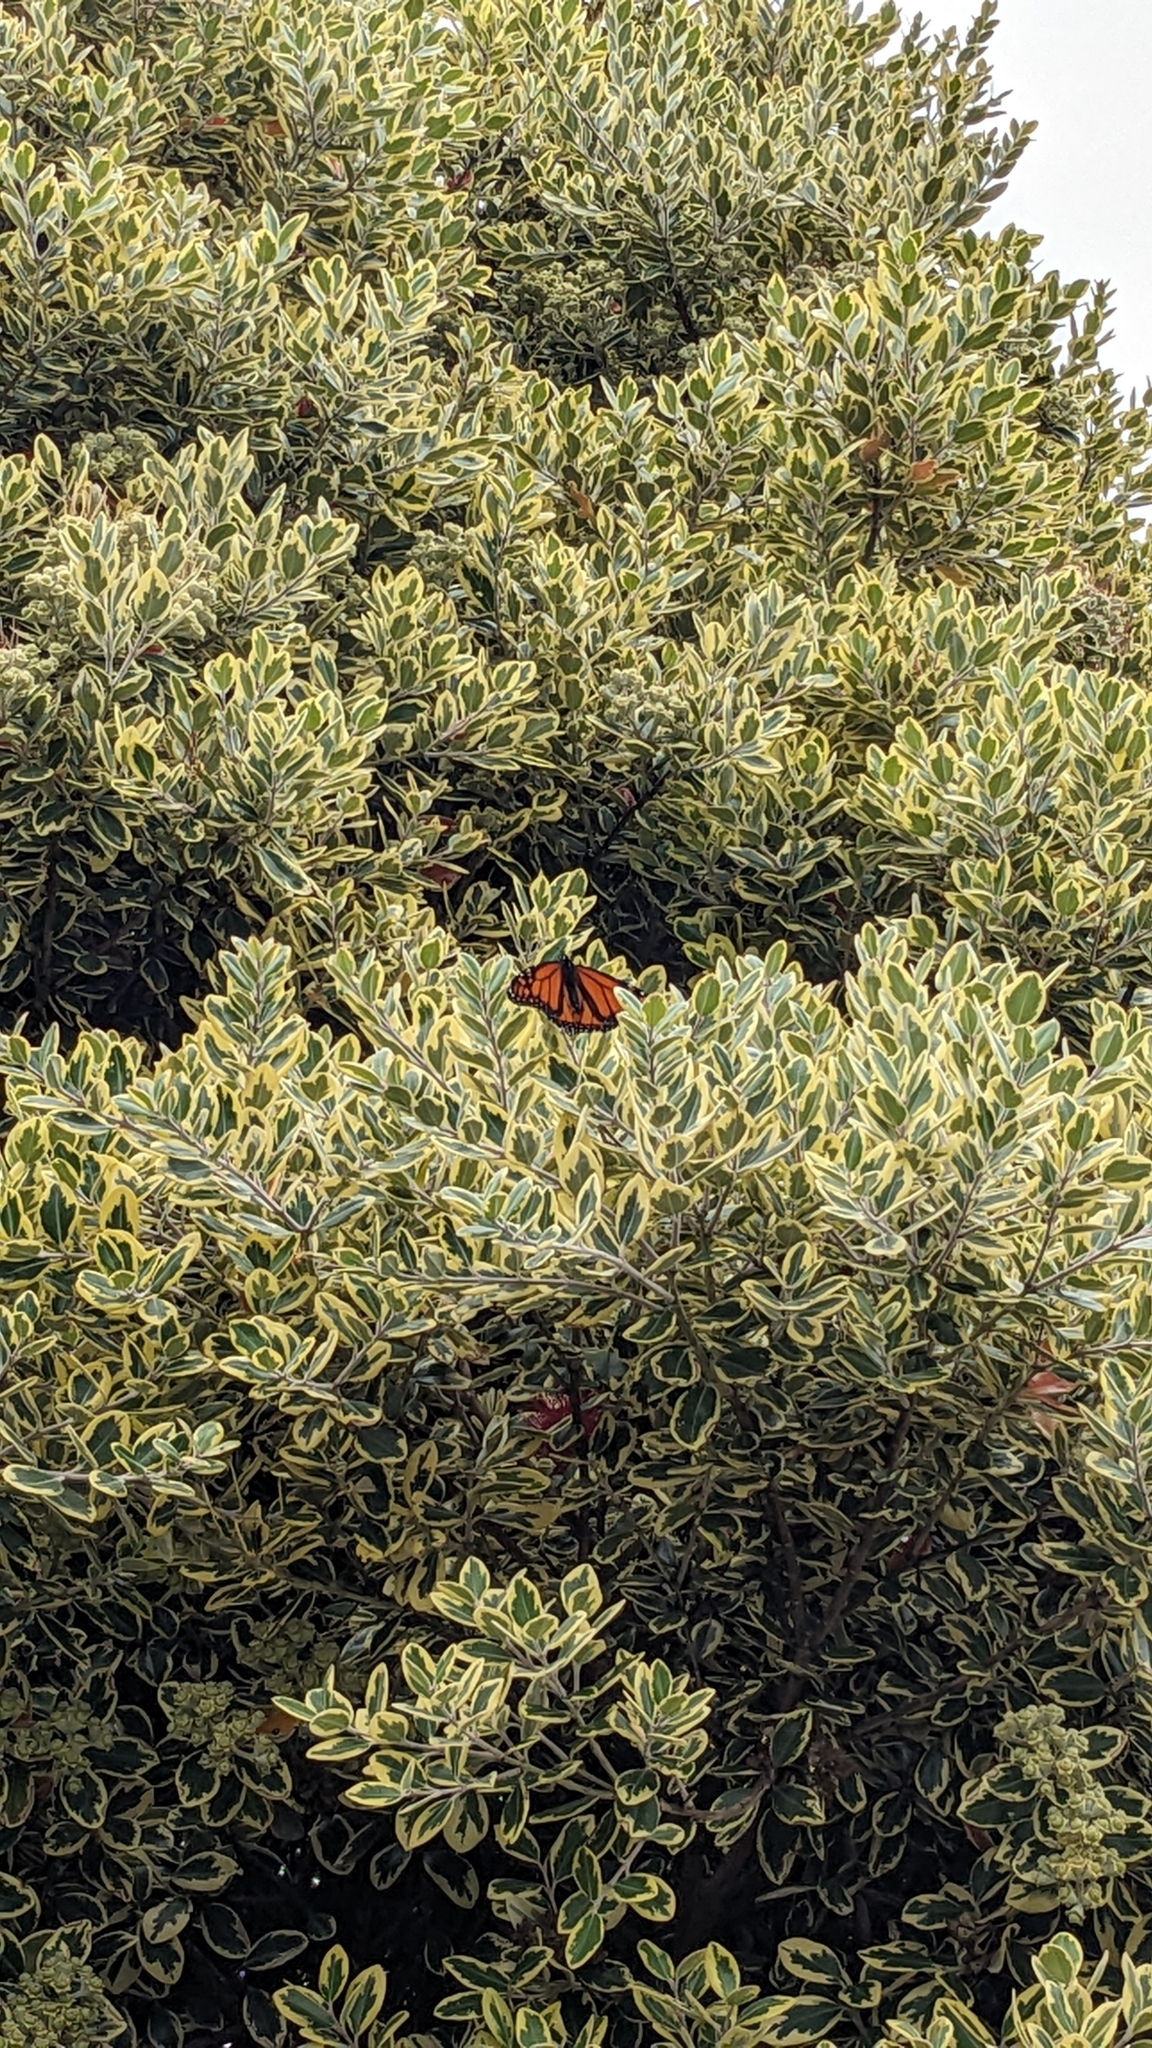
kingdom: Animalia
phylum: Arthropoda
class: Insecta
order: Lepidoptera
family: Nymphalidae
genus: Danaus
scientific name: Danaus plexippus
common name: Monarch
